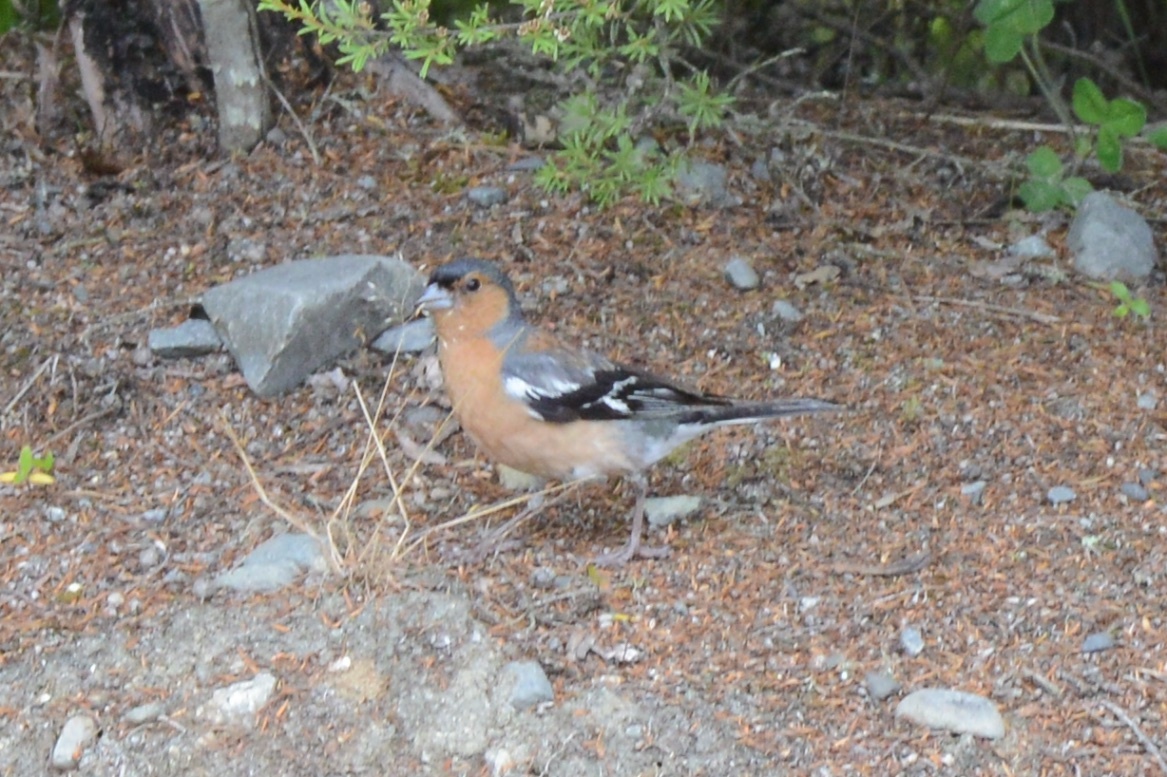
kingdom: Animalia
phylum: Chordata
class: Aves
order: Passeriformes
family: Fringillidae
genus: Fringilla
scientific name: Fringilla coelebs
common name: Common chaffinch
